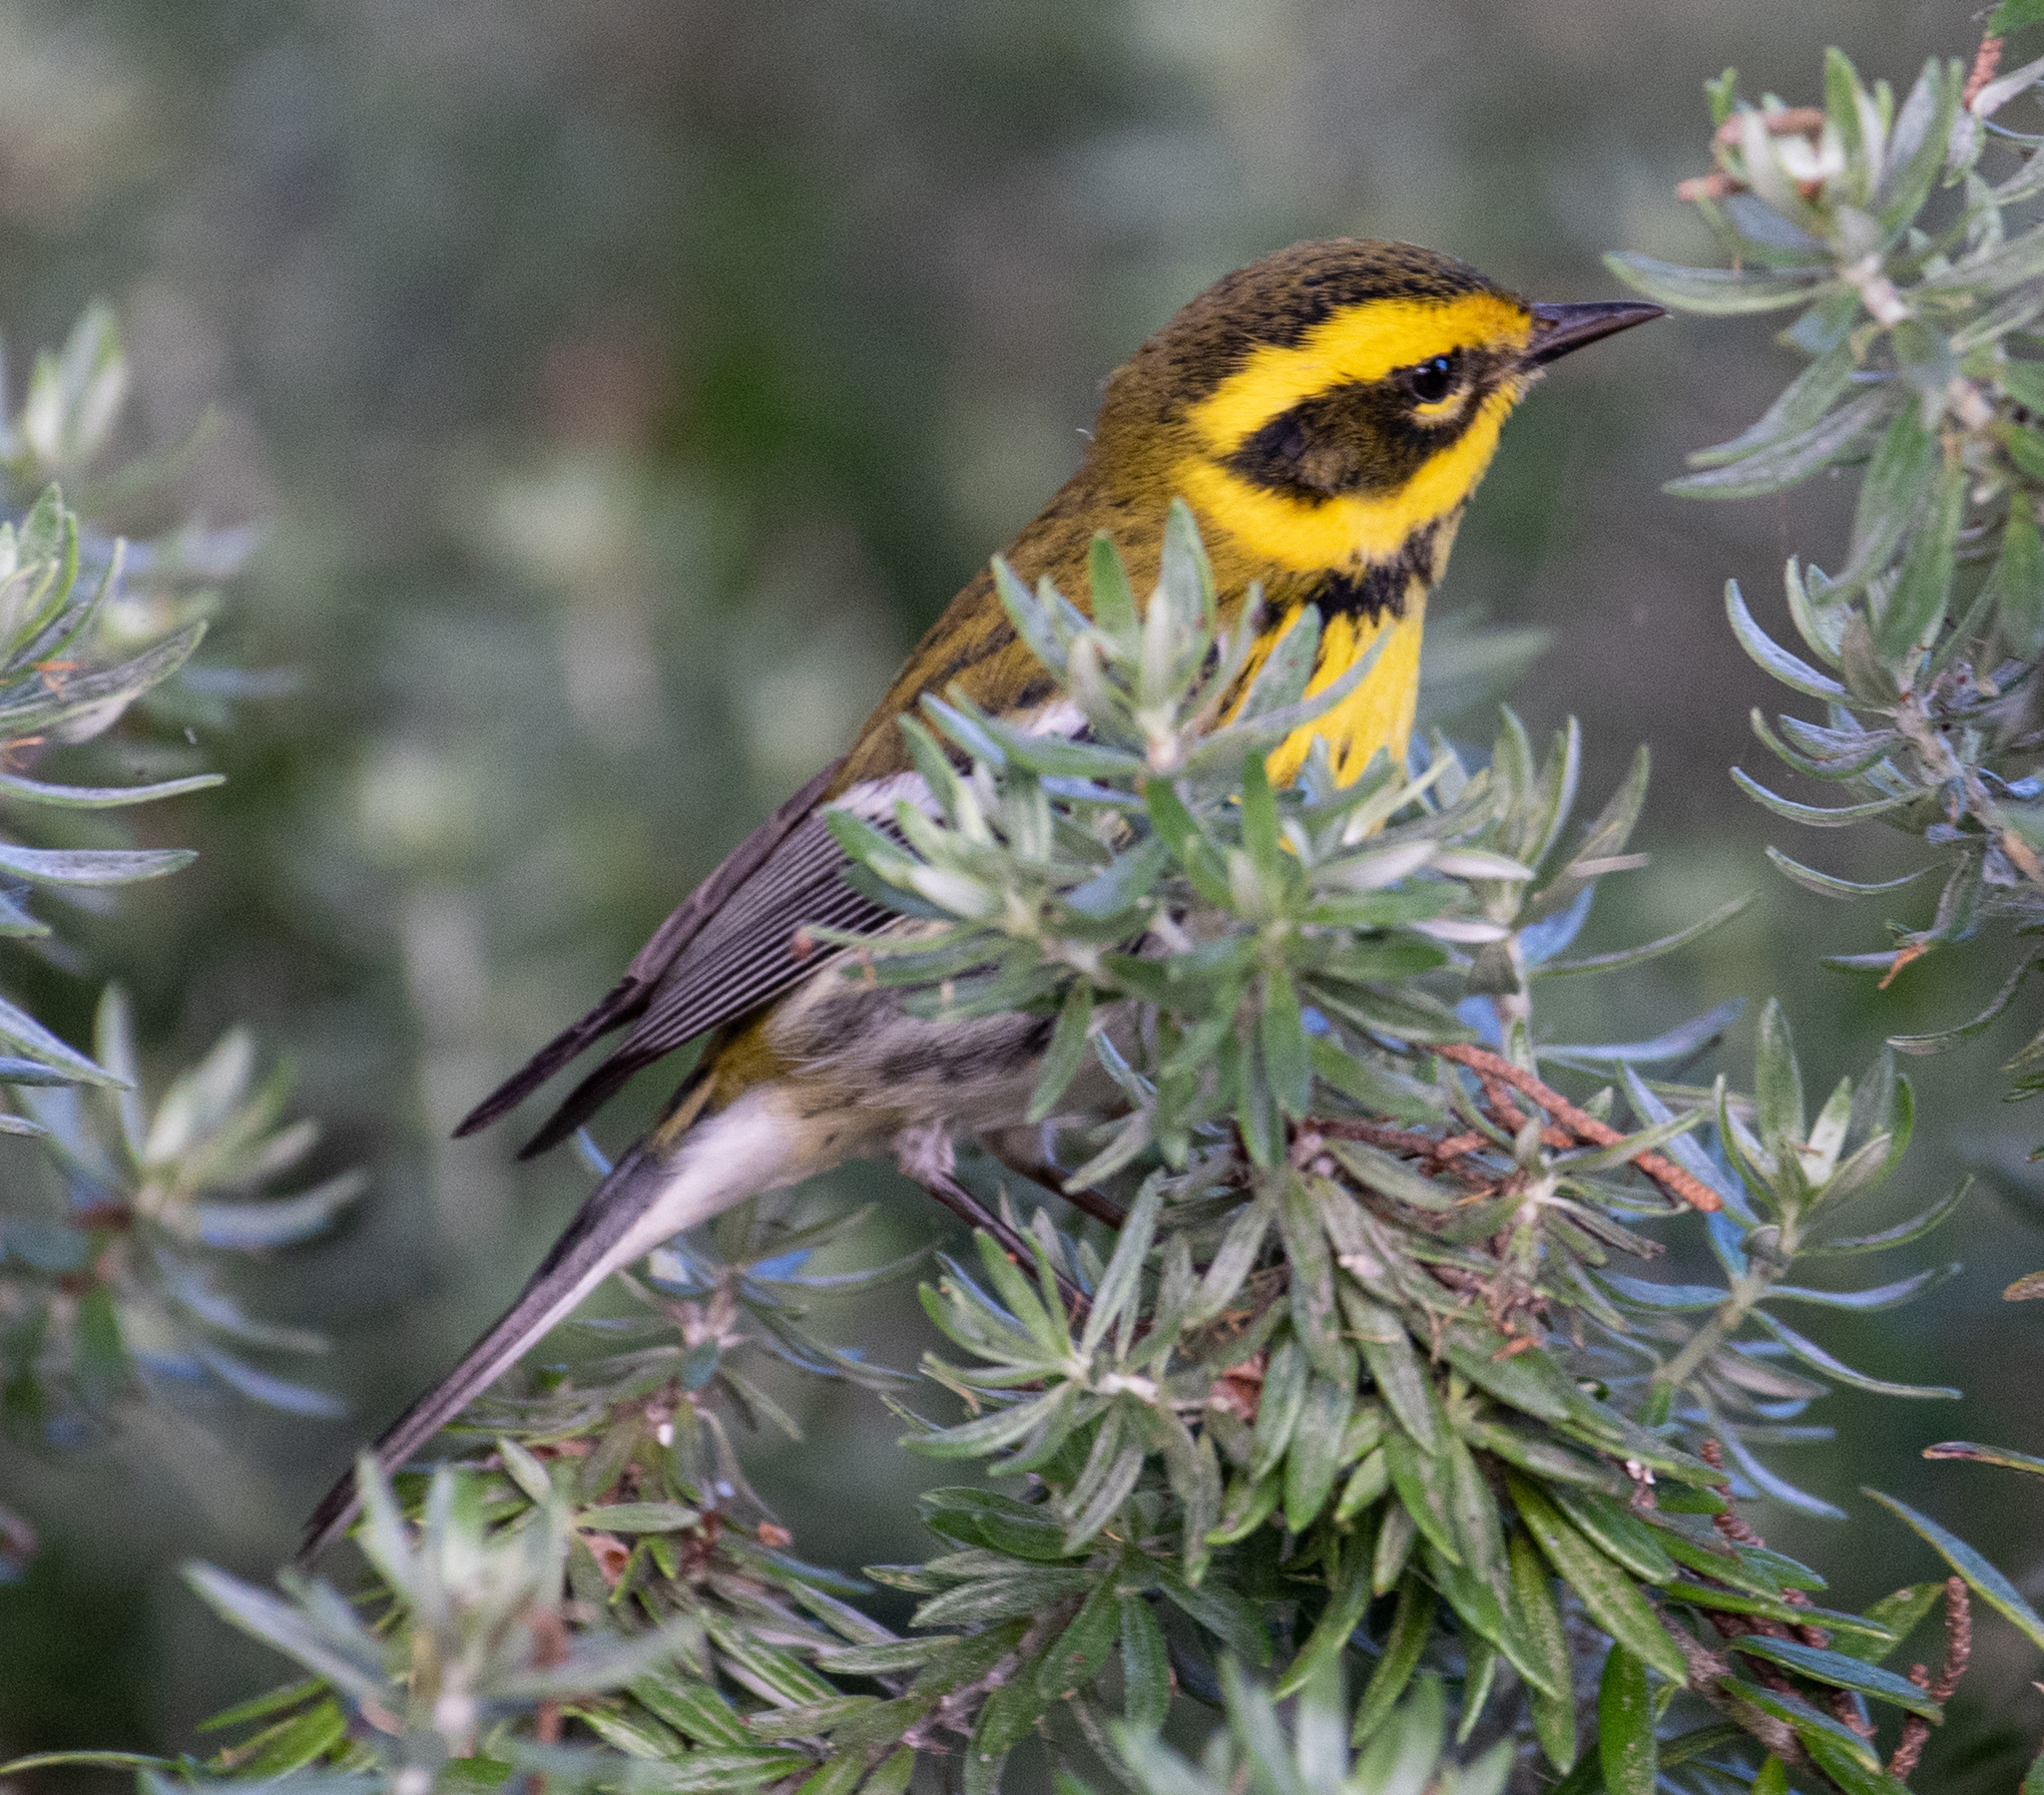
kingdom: Animalia
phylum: Chordata
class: Aves
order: Passeriformes
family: Parulidae
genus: Setophaga
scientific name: Setophaga townsendi
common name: Townsend's warbler
